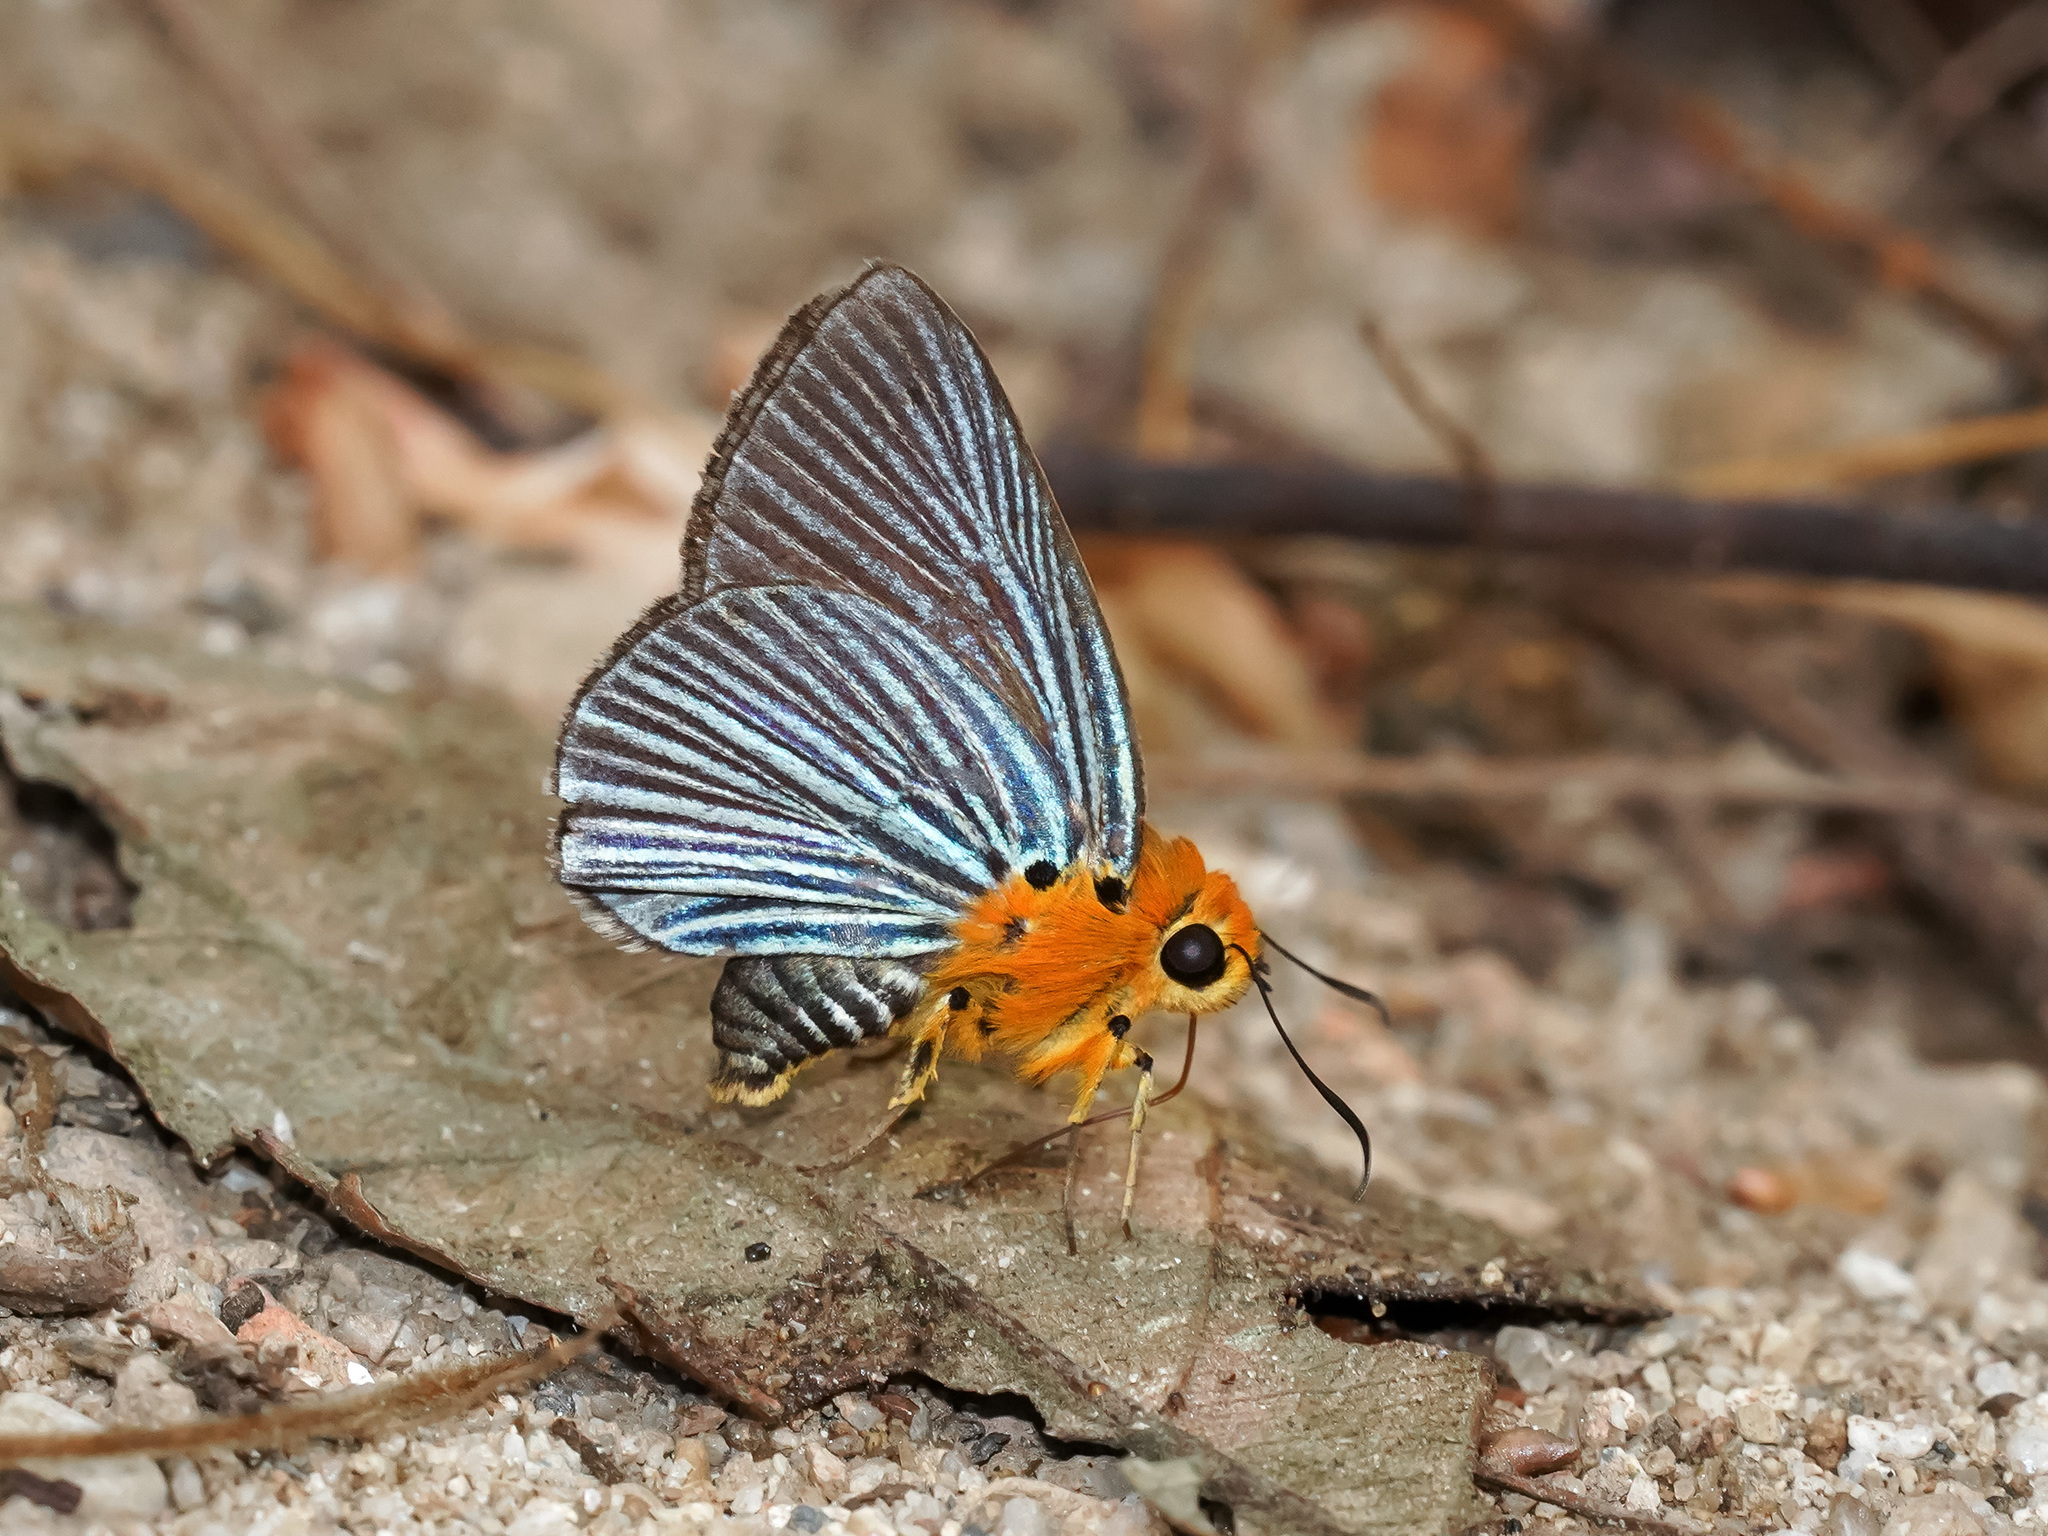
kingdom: Animalia
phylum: Arthropoda
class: Insecta
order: Lepidoptera
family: Hesperiidae
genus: Bibasis
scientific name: Bibasis amara
